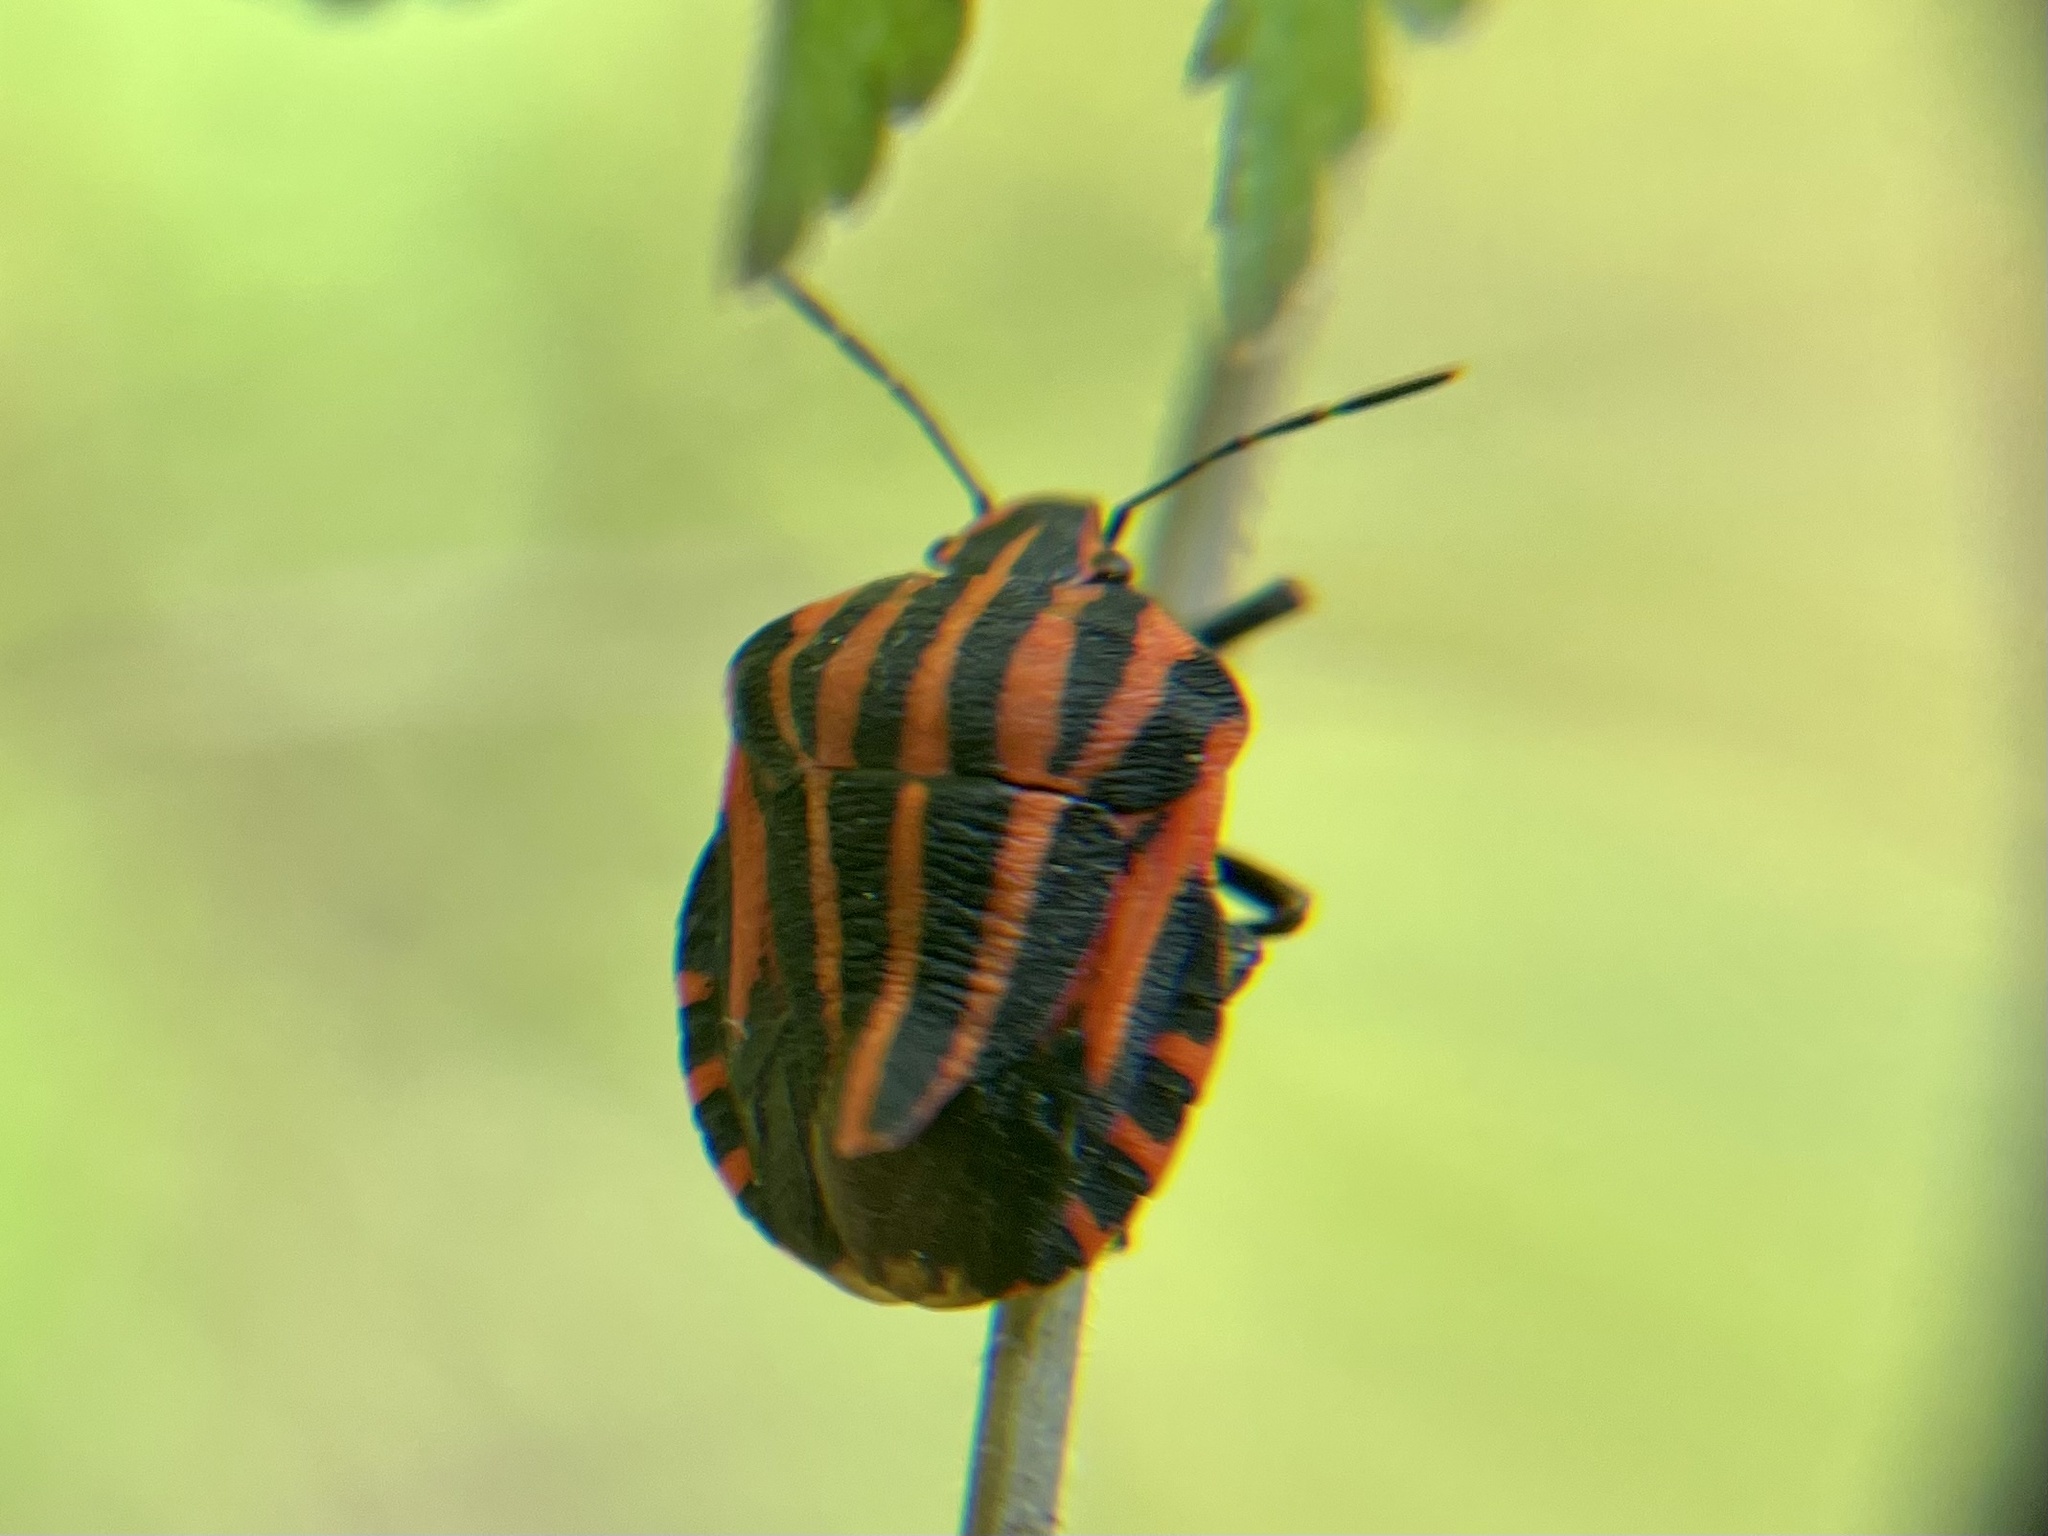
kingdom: Animalia
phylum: Arthropoda
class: Insecta
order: Hemiptera
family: Pentatomidae
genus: Graphosoma
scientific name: Graphosoma italicum
